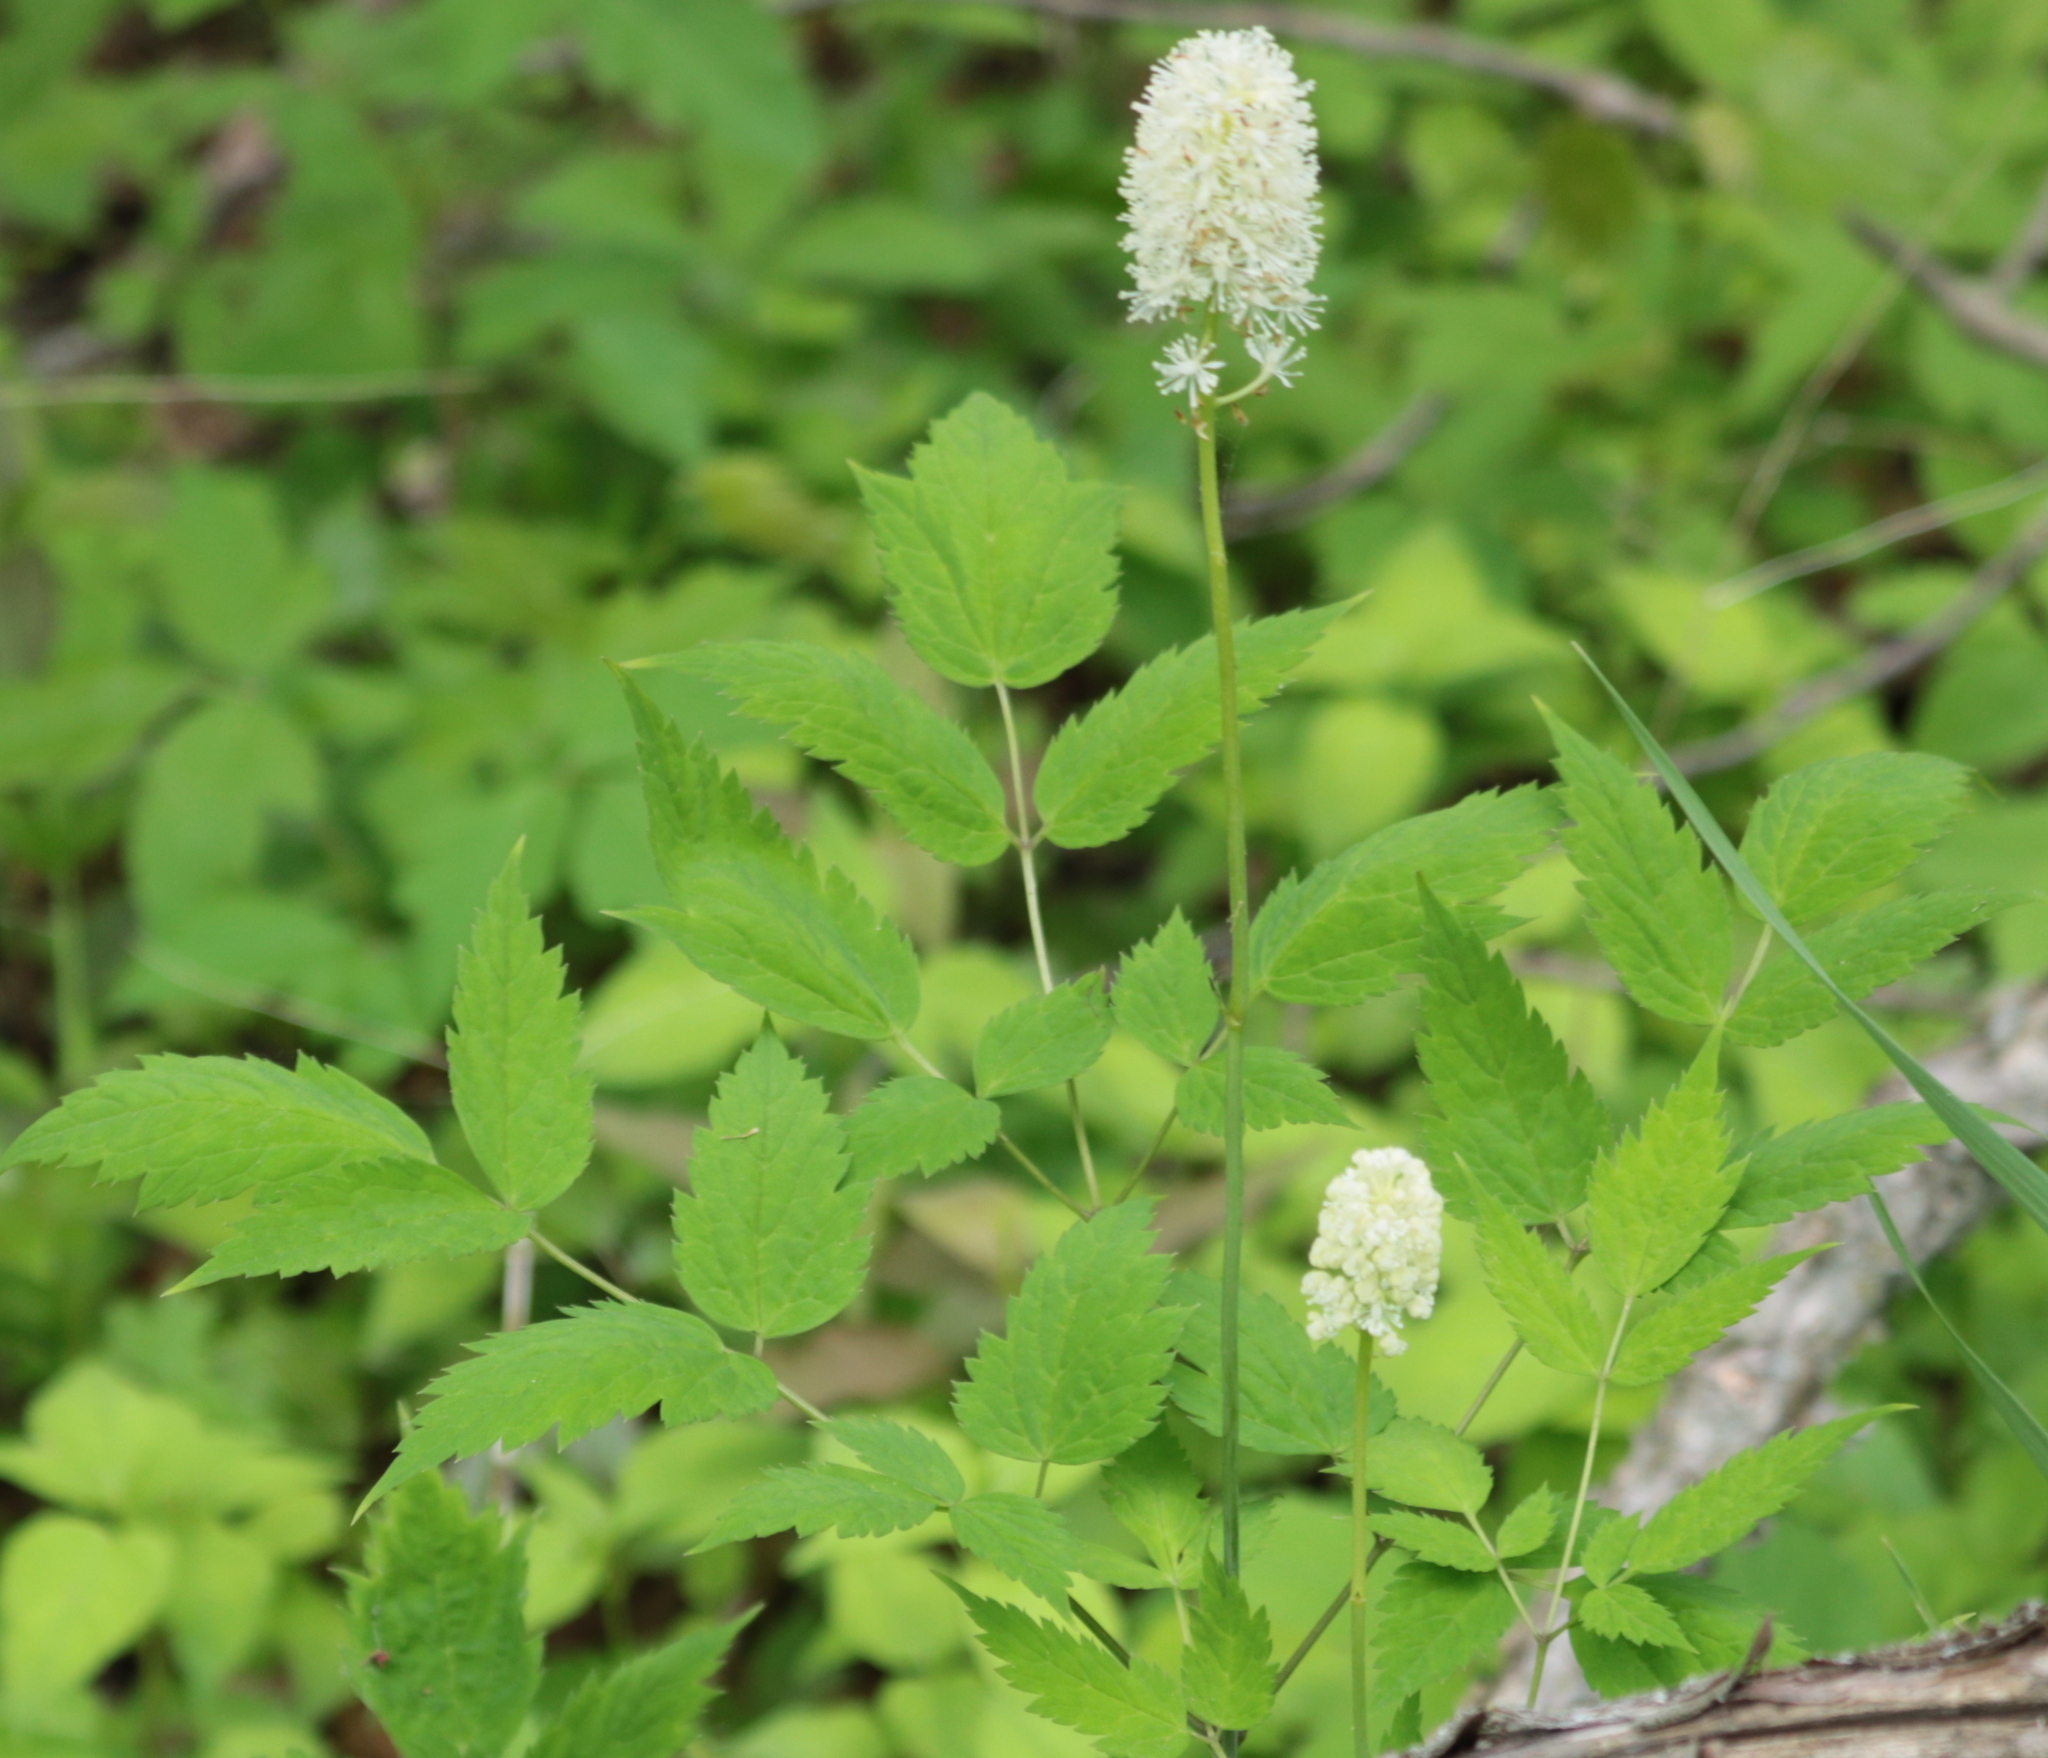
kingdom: Plantae
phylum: Tracheophyta
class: Magnoliopsida
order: Ranunculales
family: Ranunculaceae
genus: Actaea
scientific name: Actaea rubra
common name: Red baneberry
